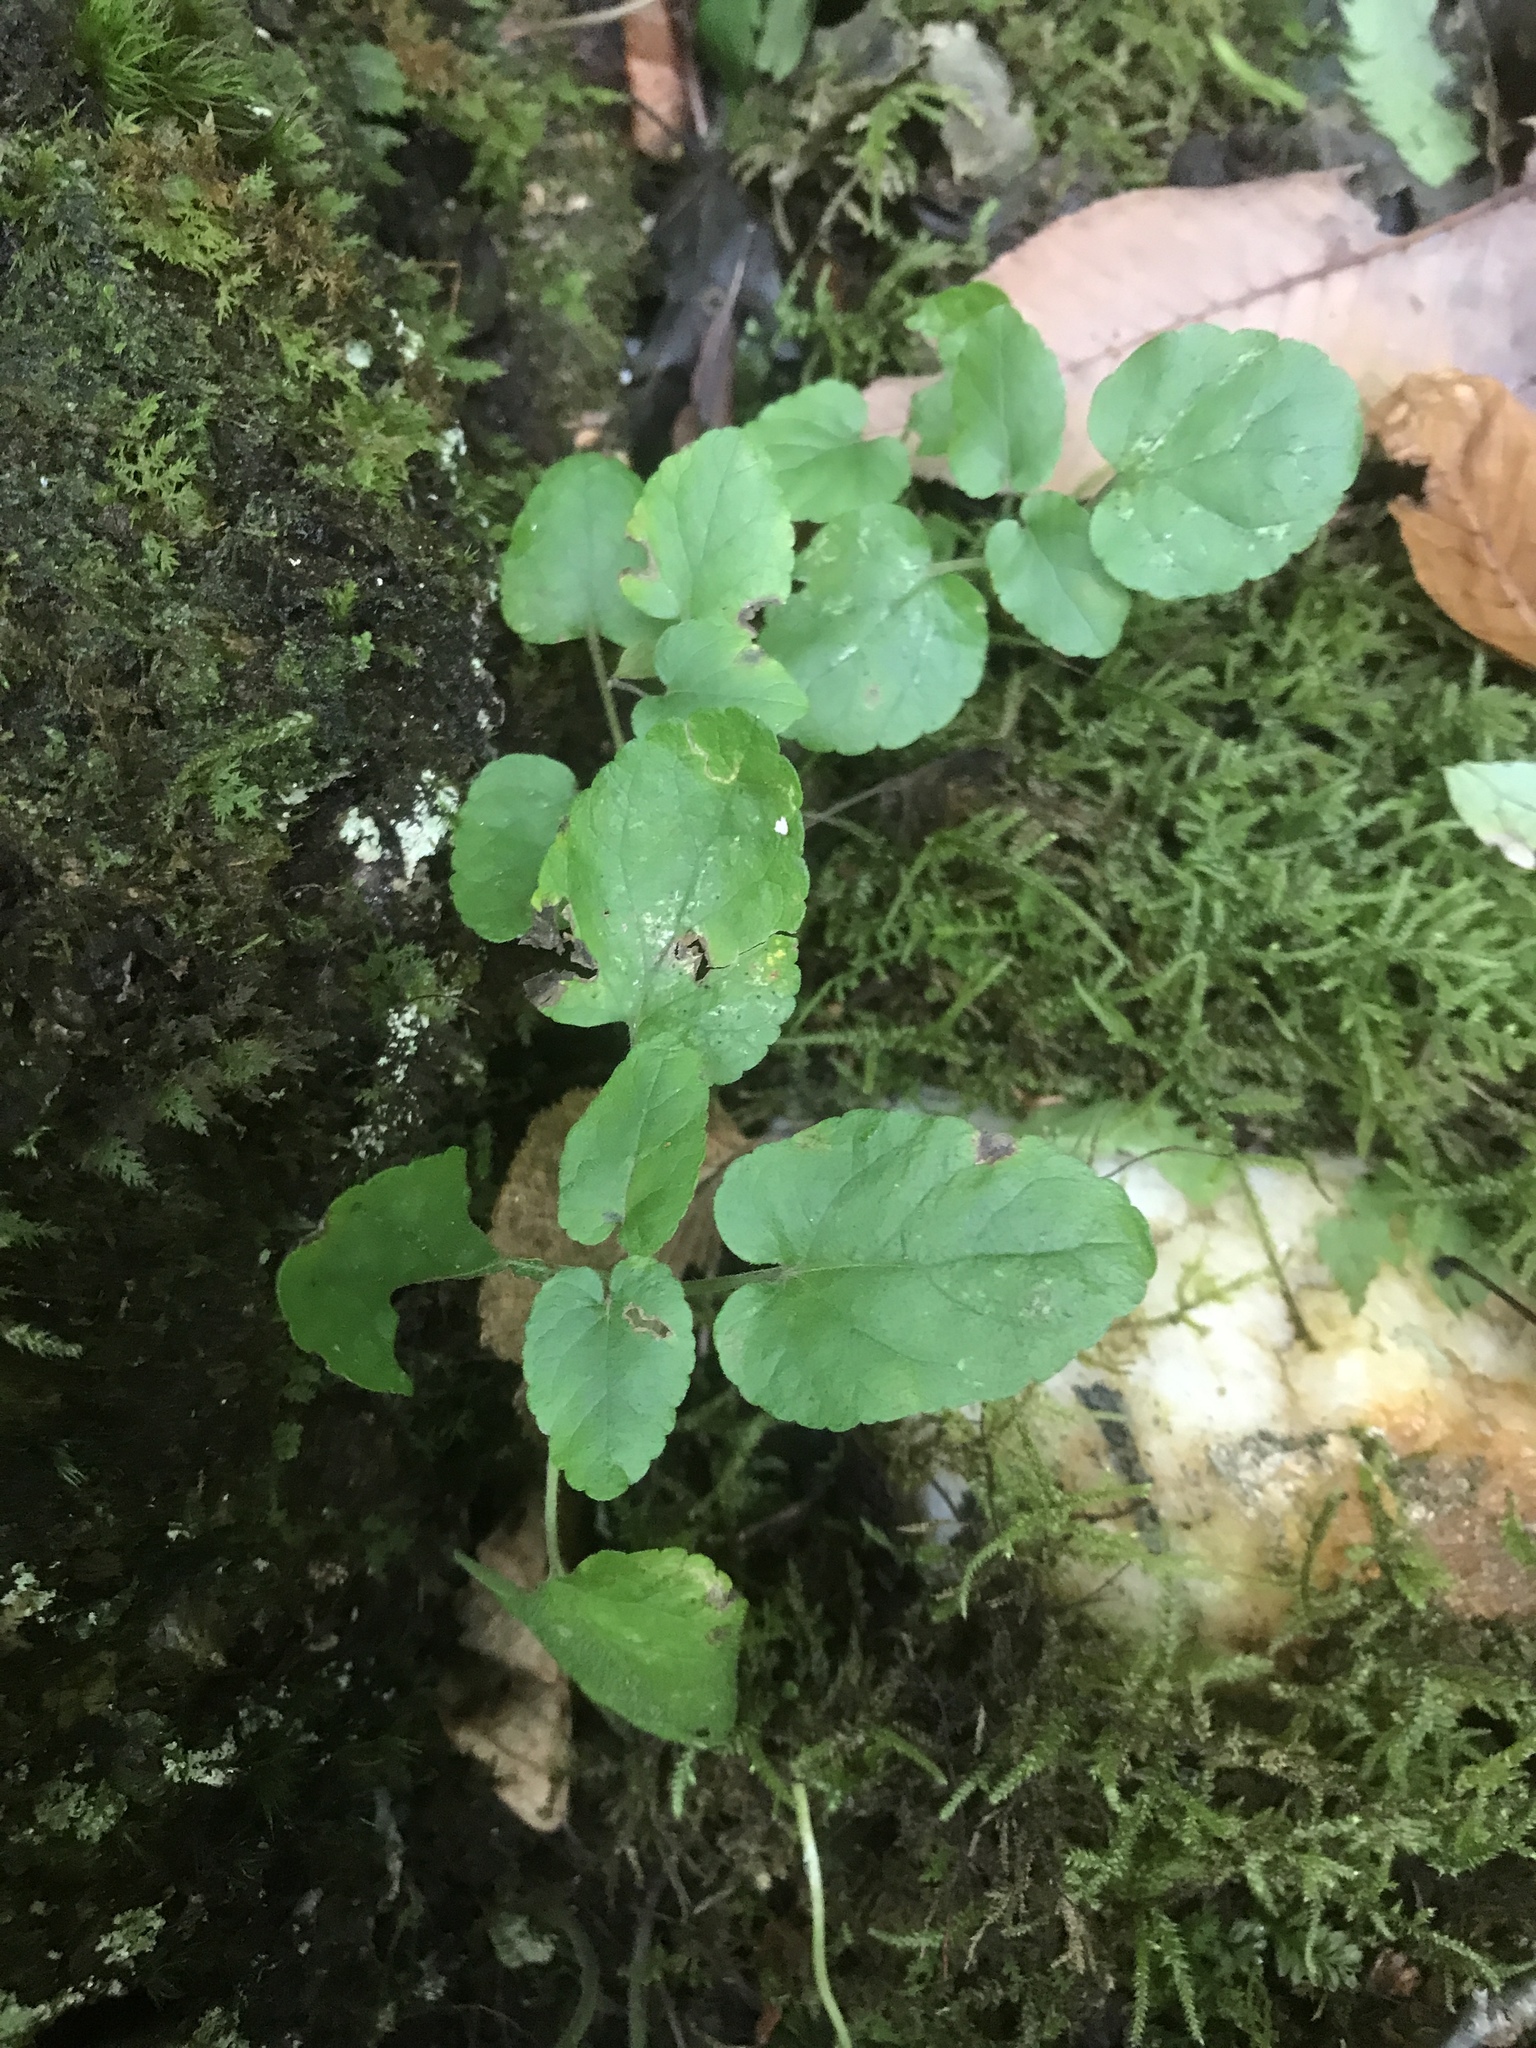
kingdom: Plantae
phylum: Tracheophyta
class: Magnoliopsida
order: Lamiales
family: Lamiaceae
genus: Meehania
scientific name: Meehania cordata
